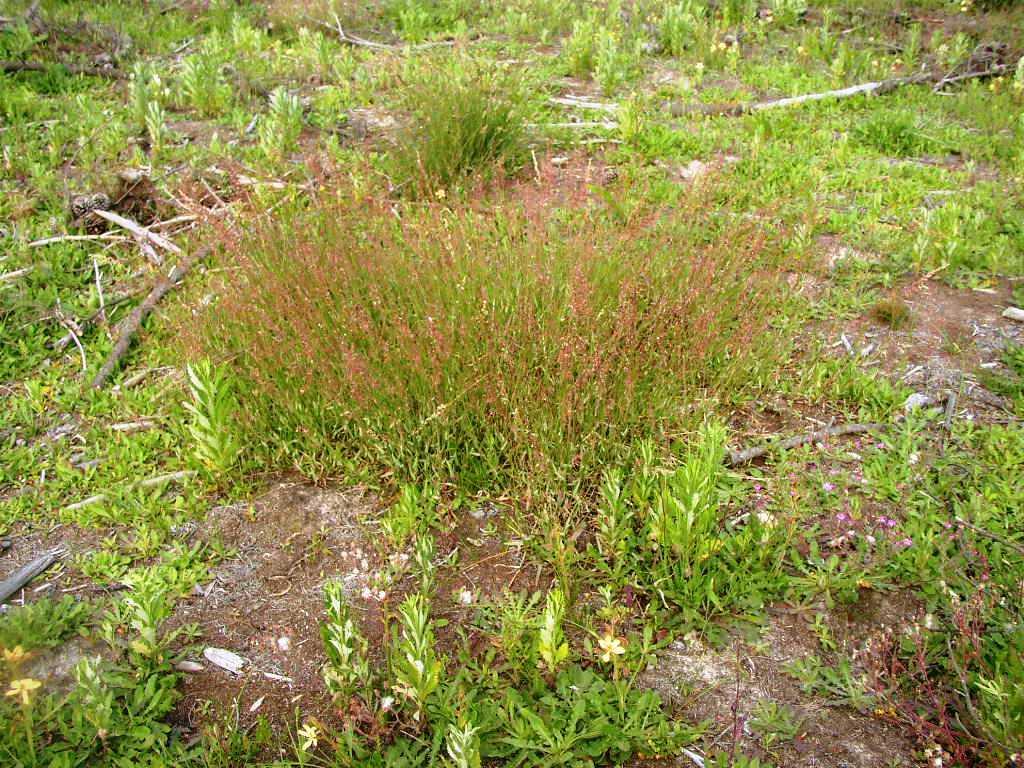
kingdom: Plantae
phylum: Tracheophyta
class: Magnoliopsida
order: Caryophyllales
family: Polygonaceae
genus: Rumex
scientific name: Rumex acetosella
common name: Common sheep sorrel
